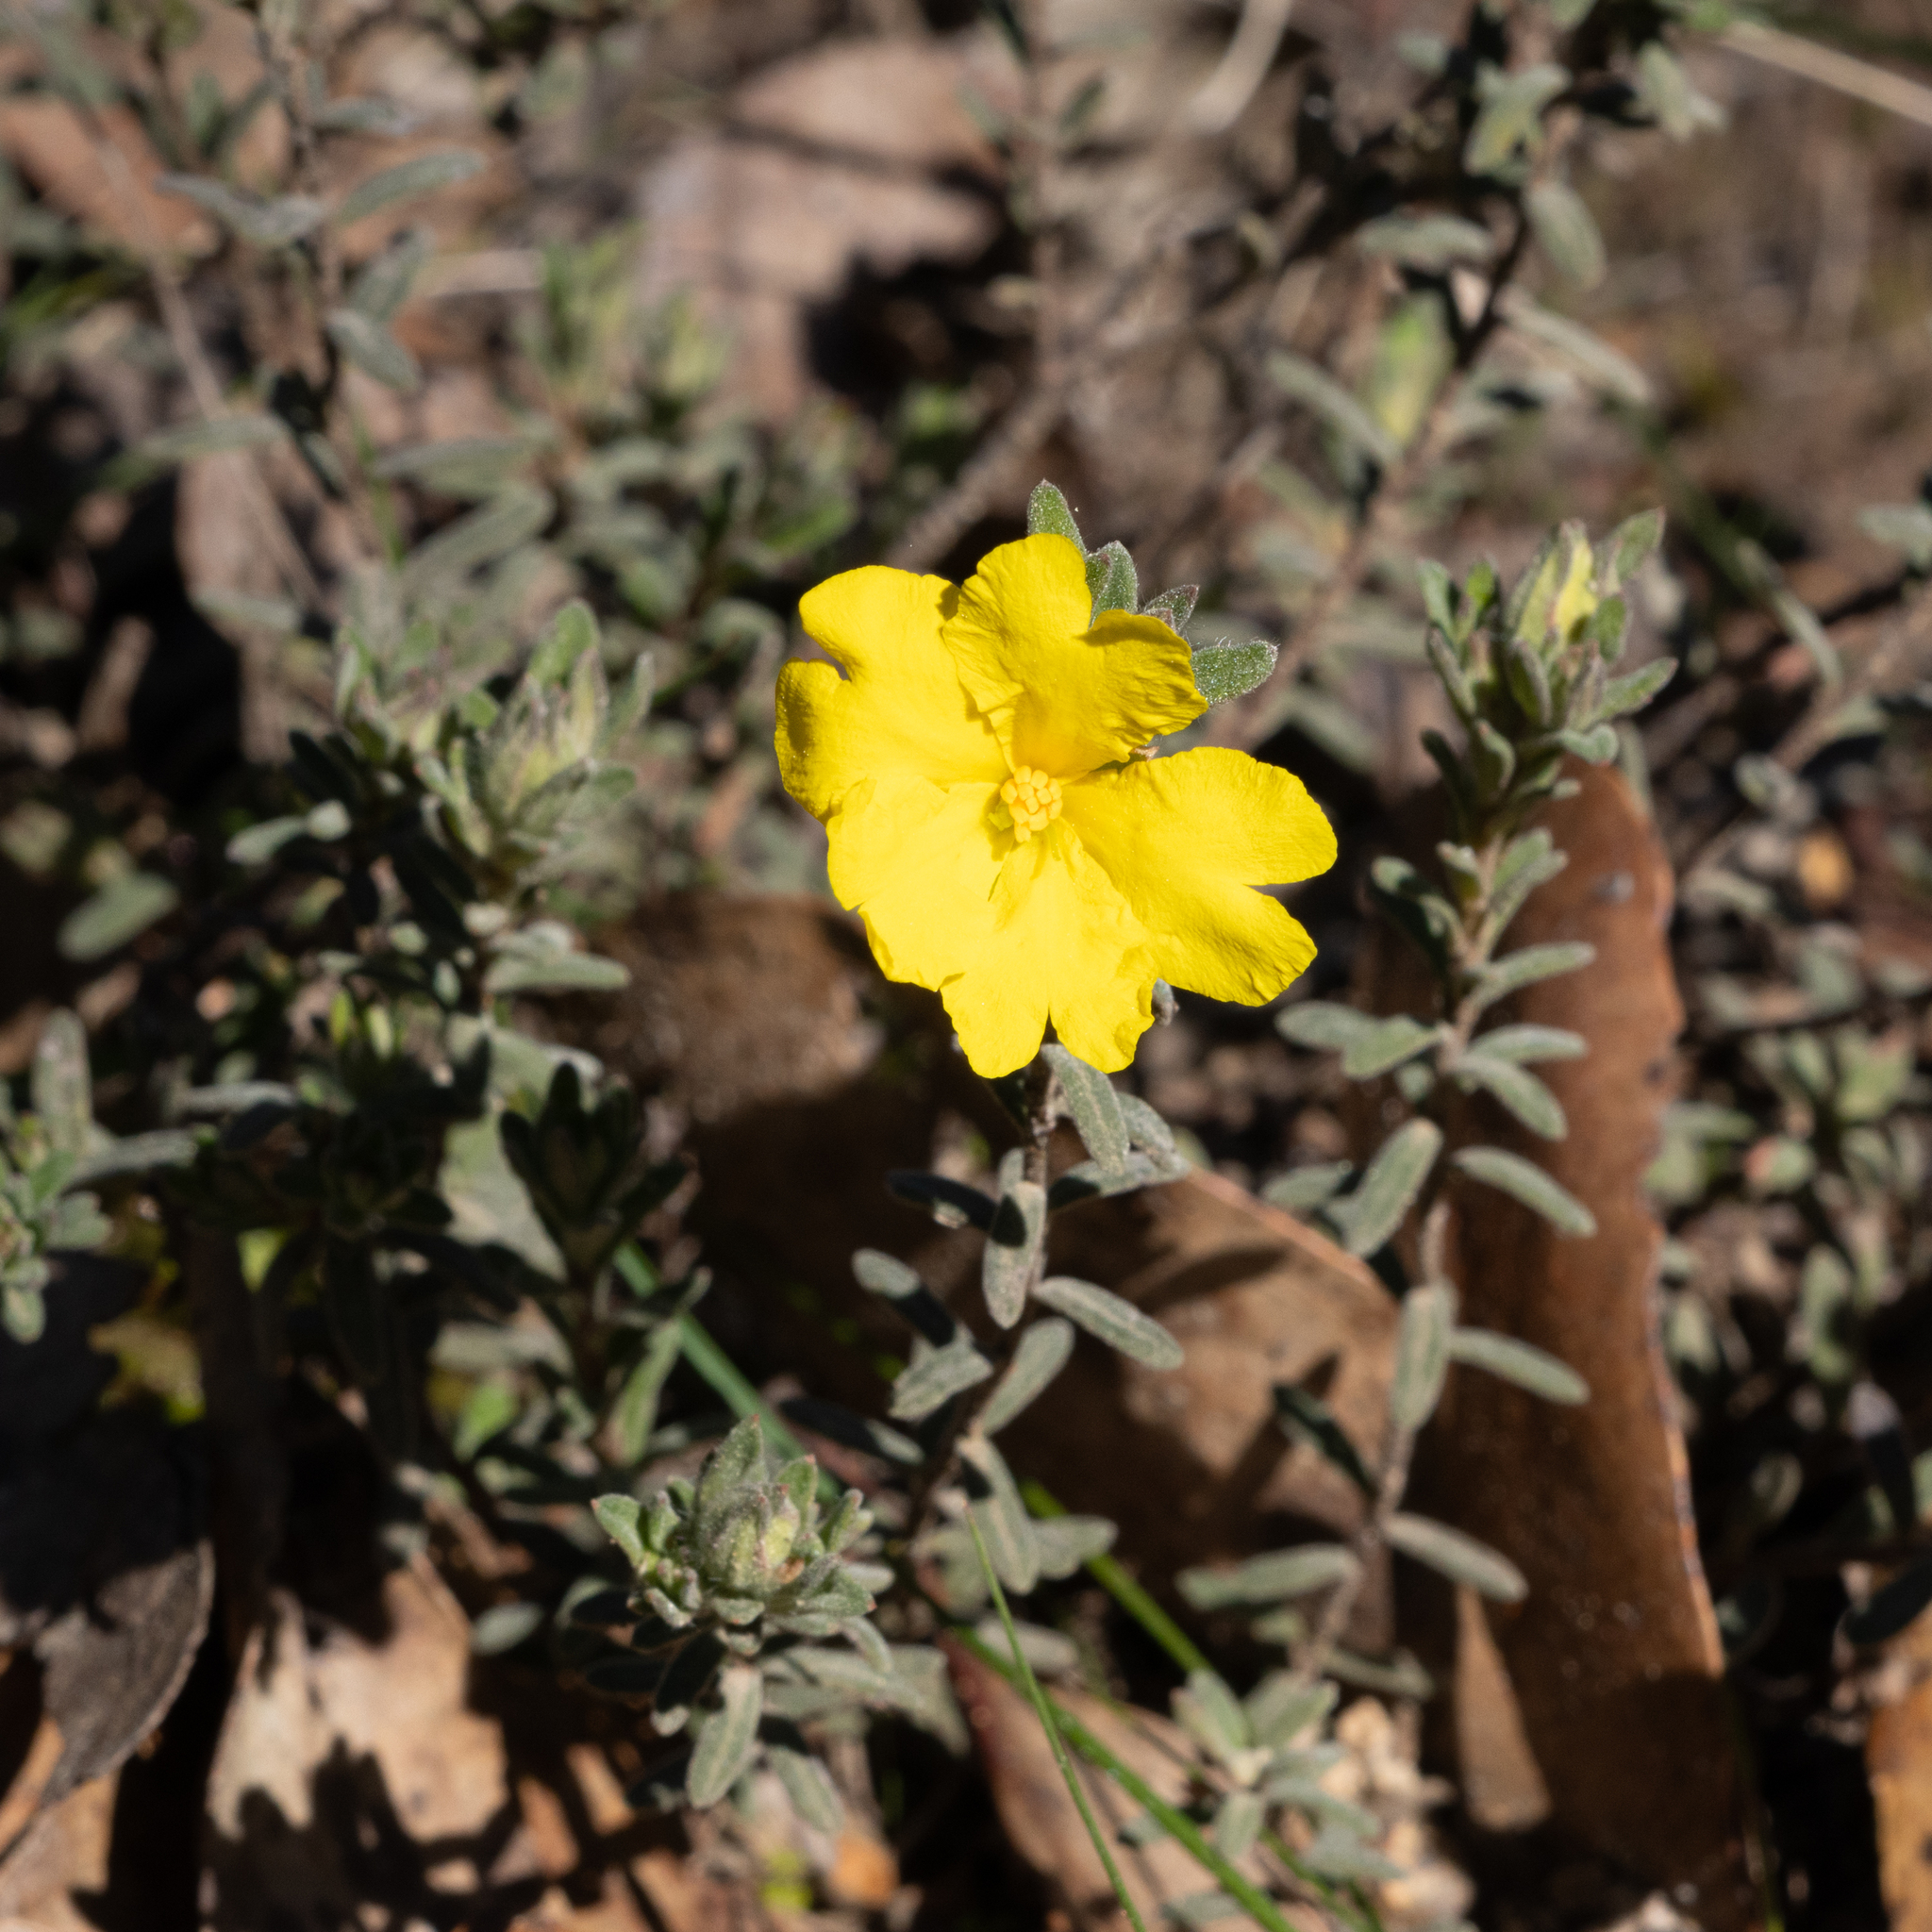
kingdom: Plantae
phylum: Tracheophyta
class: Magnoliopsida
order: Dilleniales
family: Dilleniaceae
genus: Hibbertia
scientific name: Hibbertia crinita
